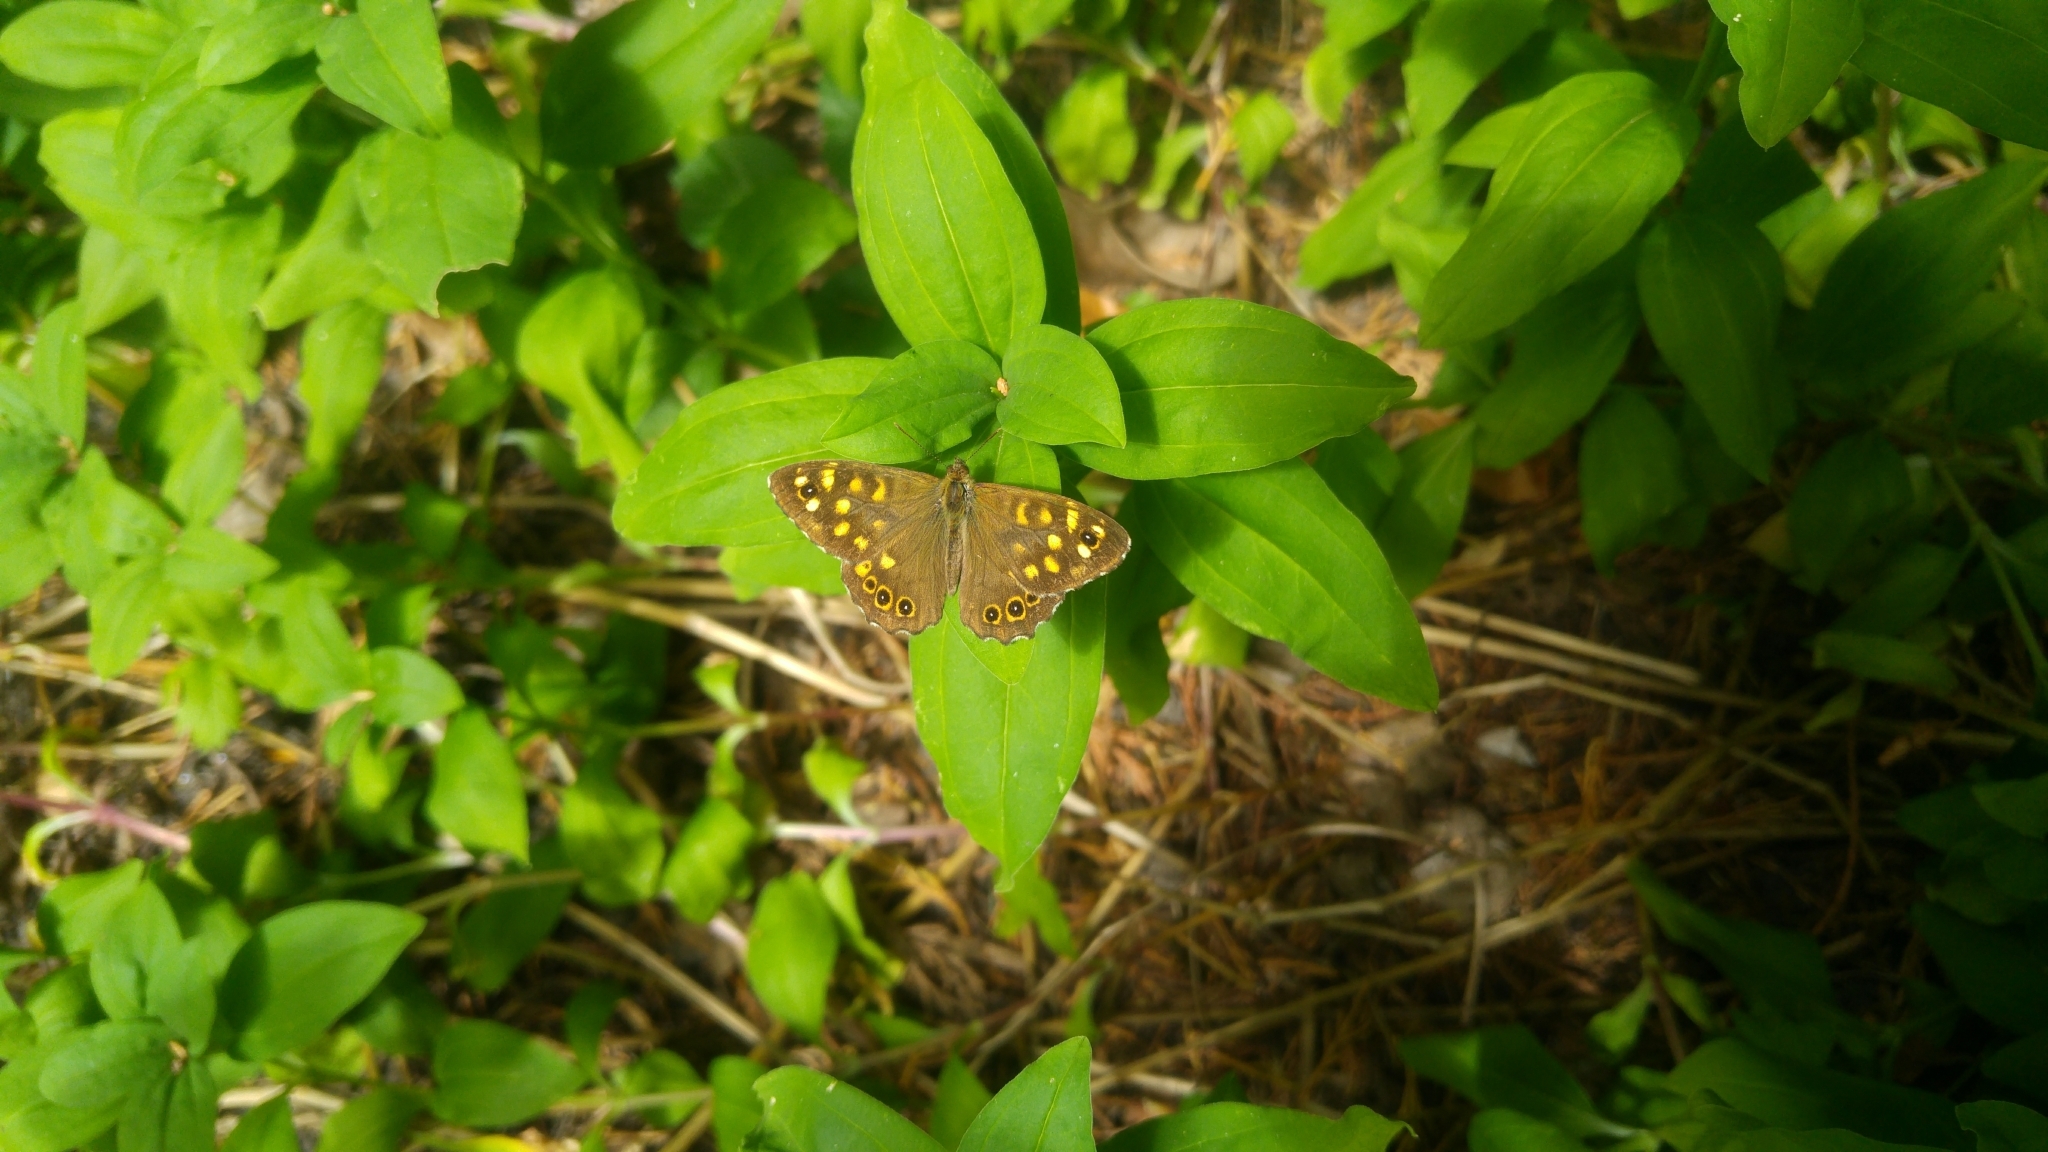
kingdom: Animalia
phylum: Arthropoda
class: Insecta
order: Lepidoptera
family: Nymphalidae
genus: Pararge
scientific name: Pararge aegeria
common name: Speckled wood
